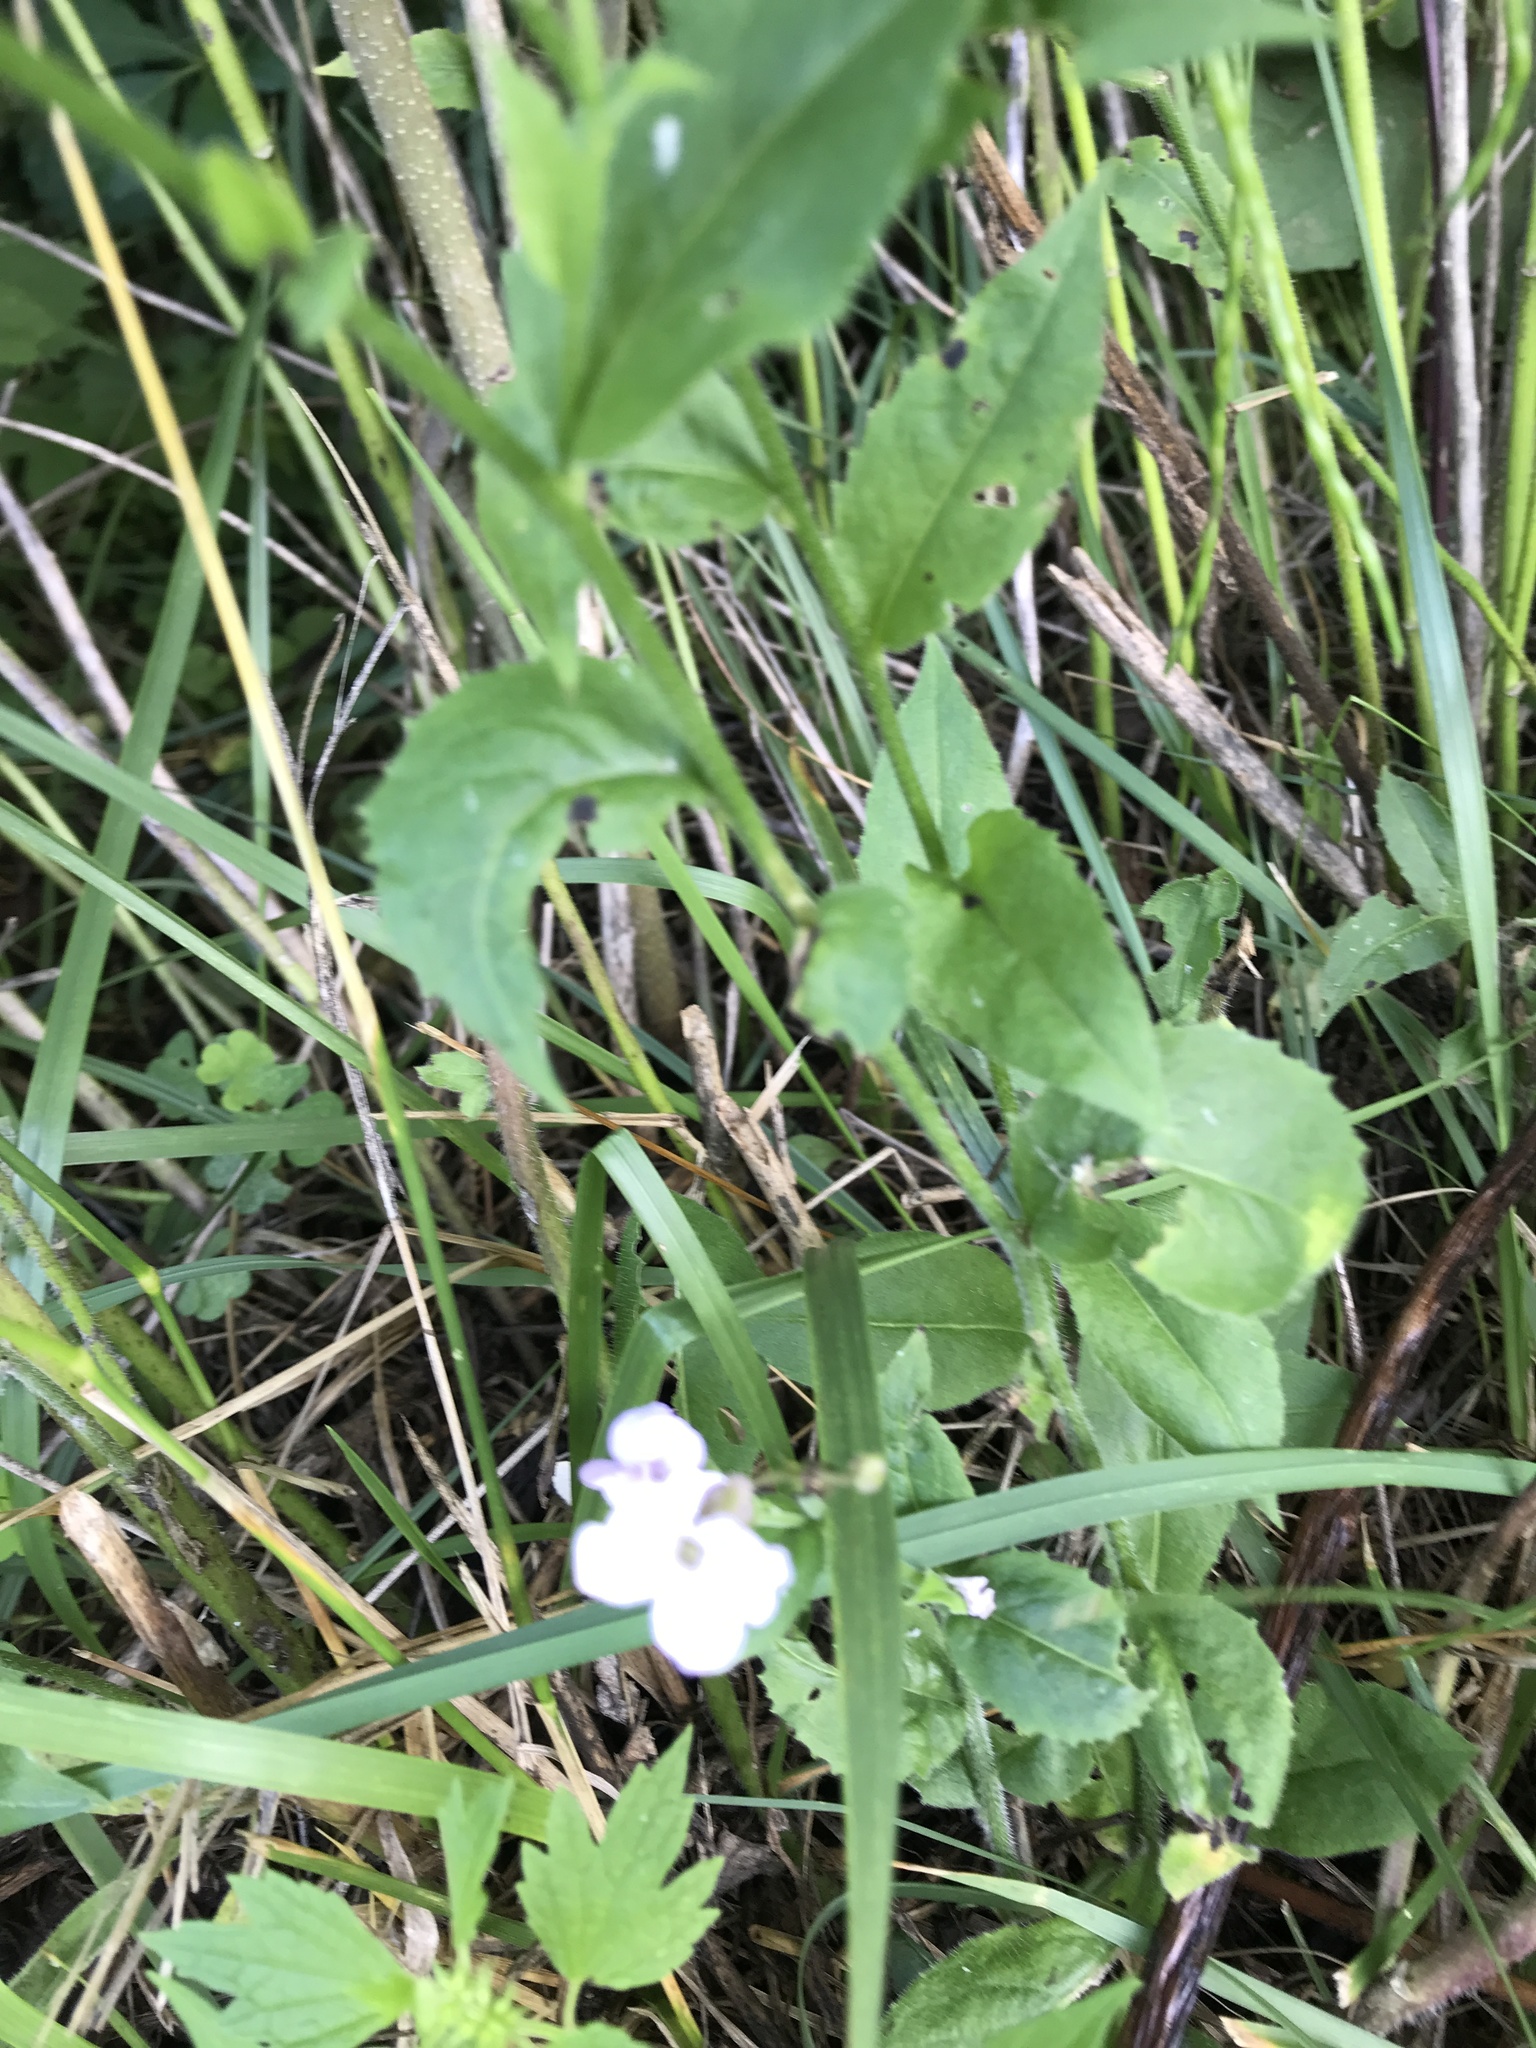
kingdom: Plantae
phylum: Tracheophyta
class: Magnoliopsida
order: Brassicales
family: Brassicaceae
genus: Hesperis
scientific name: Hesperis matronalis
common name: Dame's-violet
